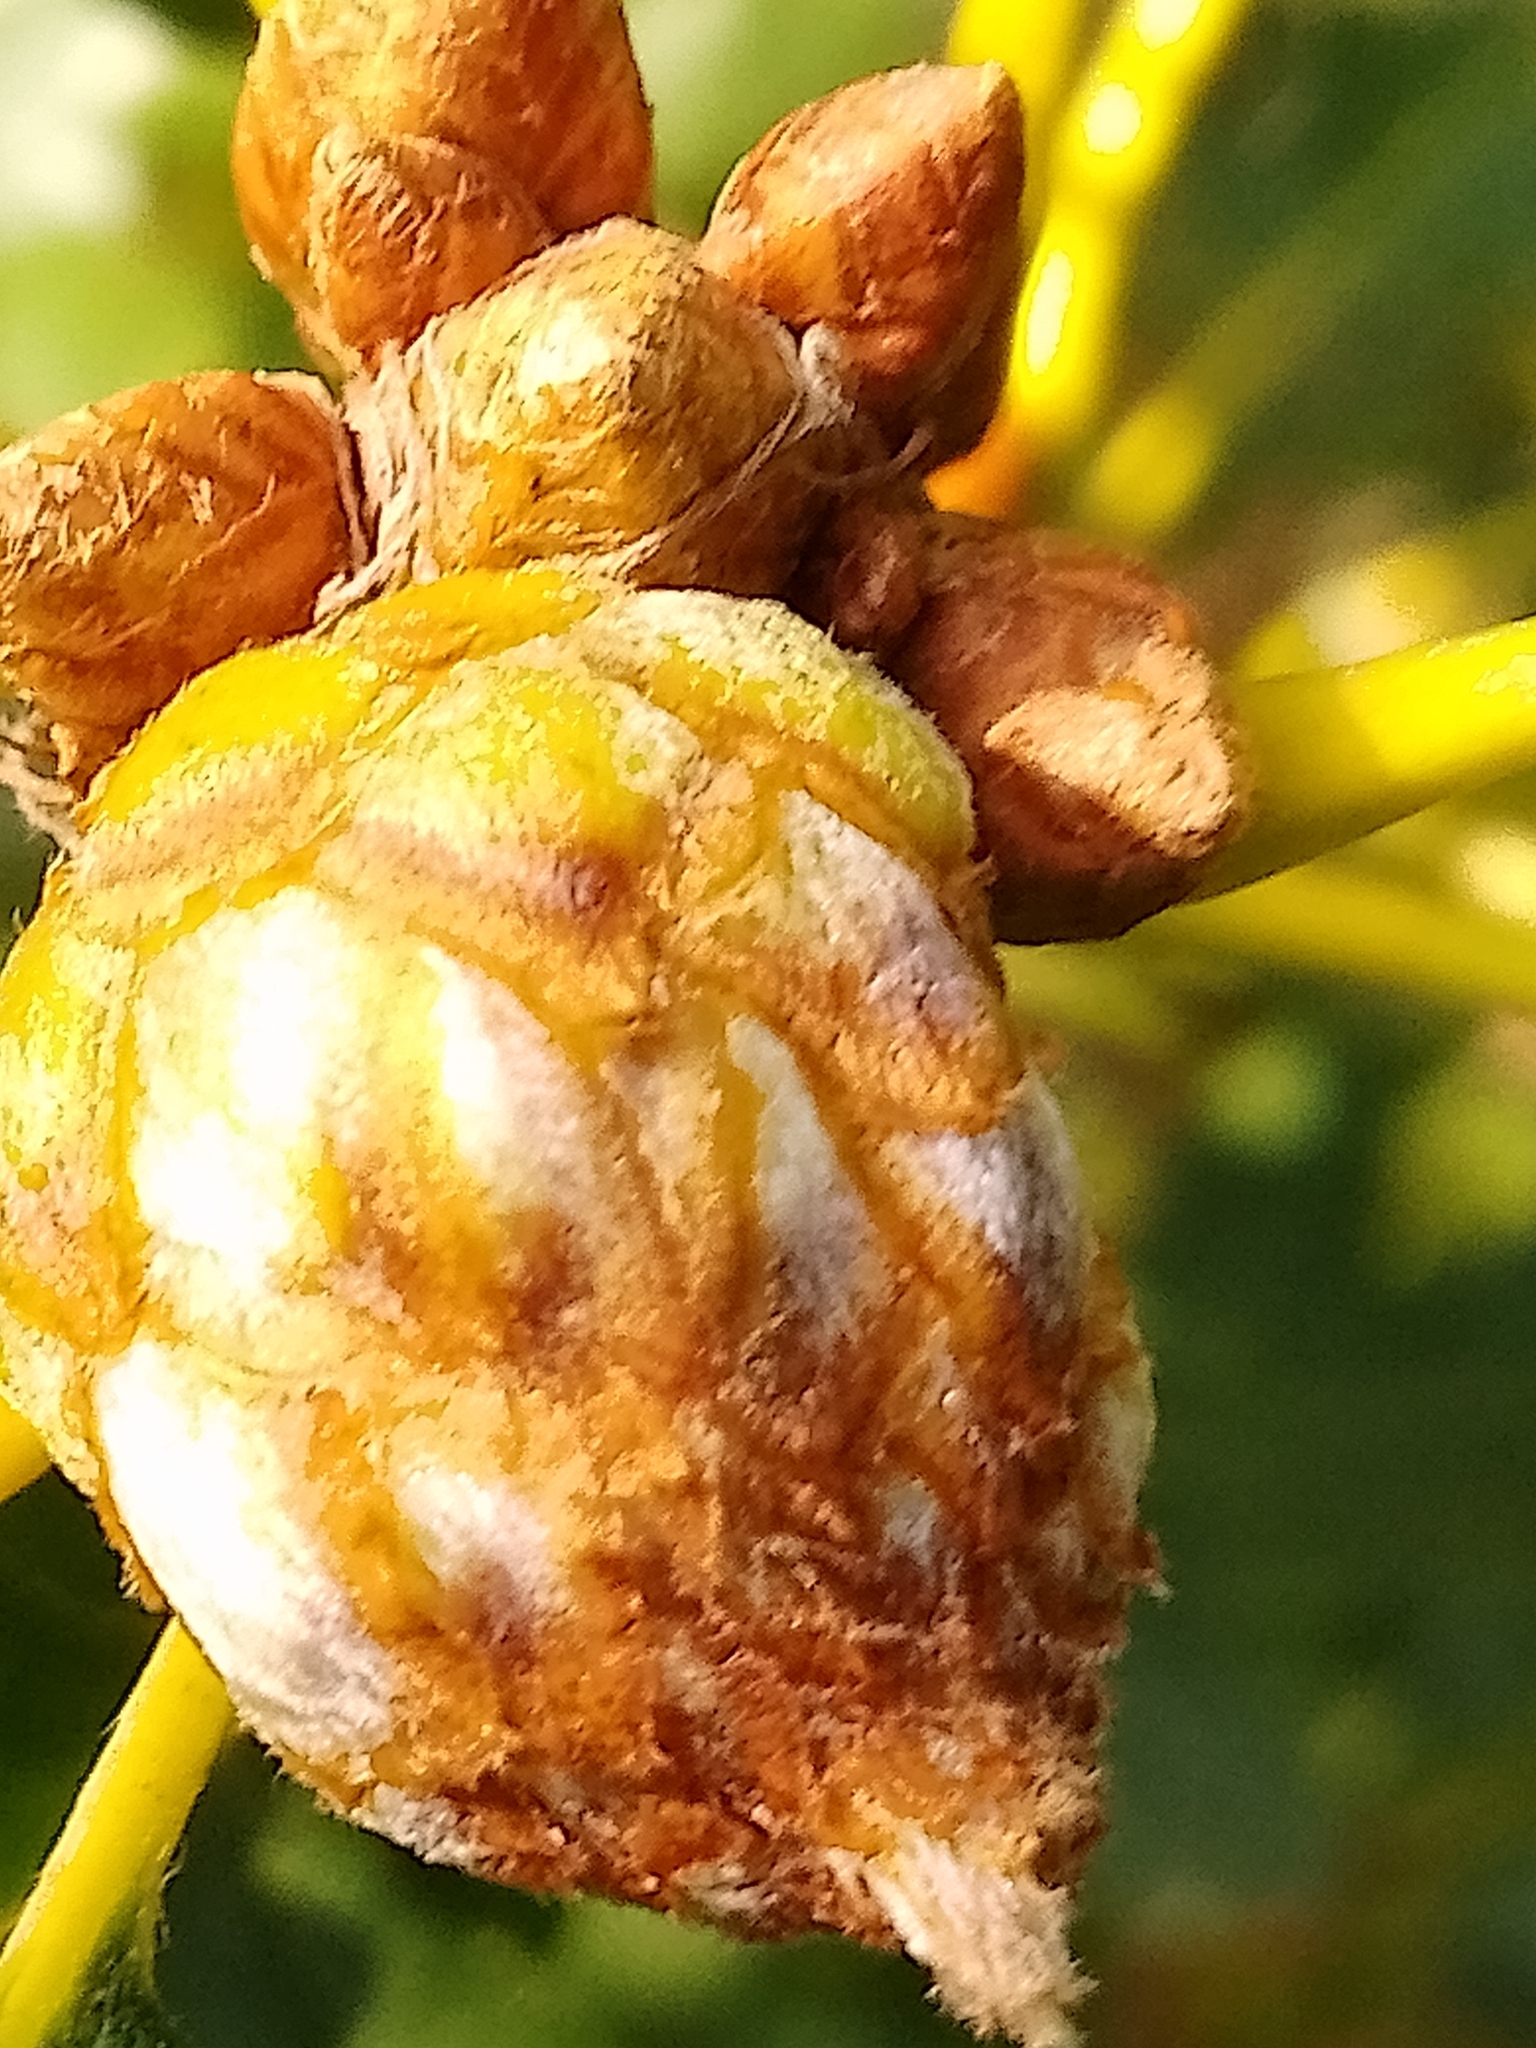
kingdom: Animalia
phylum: Arthropoda
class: Insecta
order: Hymenoptera
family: Cynipidae
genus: Andricus
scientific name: Andricus foecundatrix
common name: Artichoke gall
